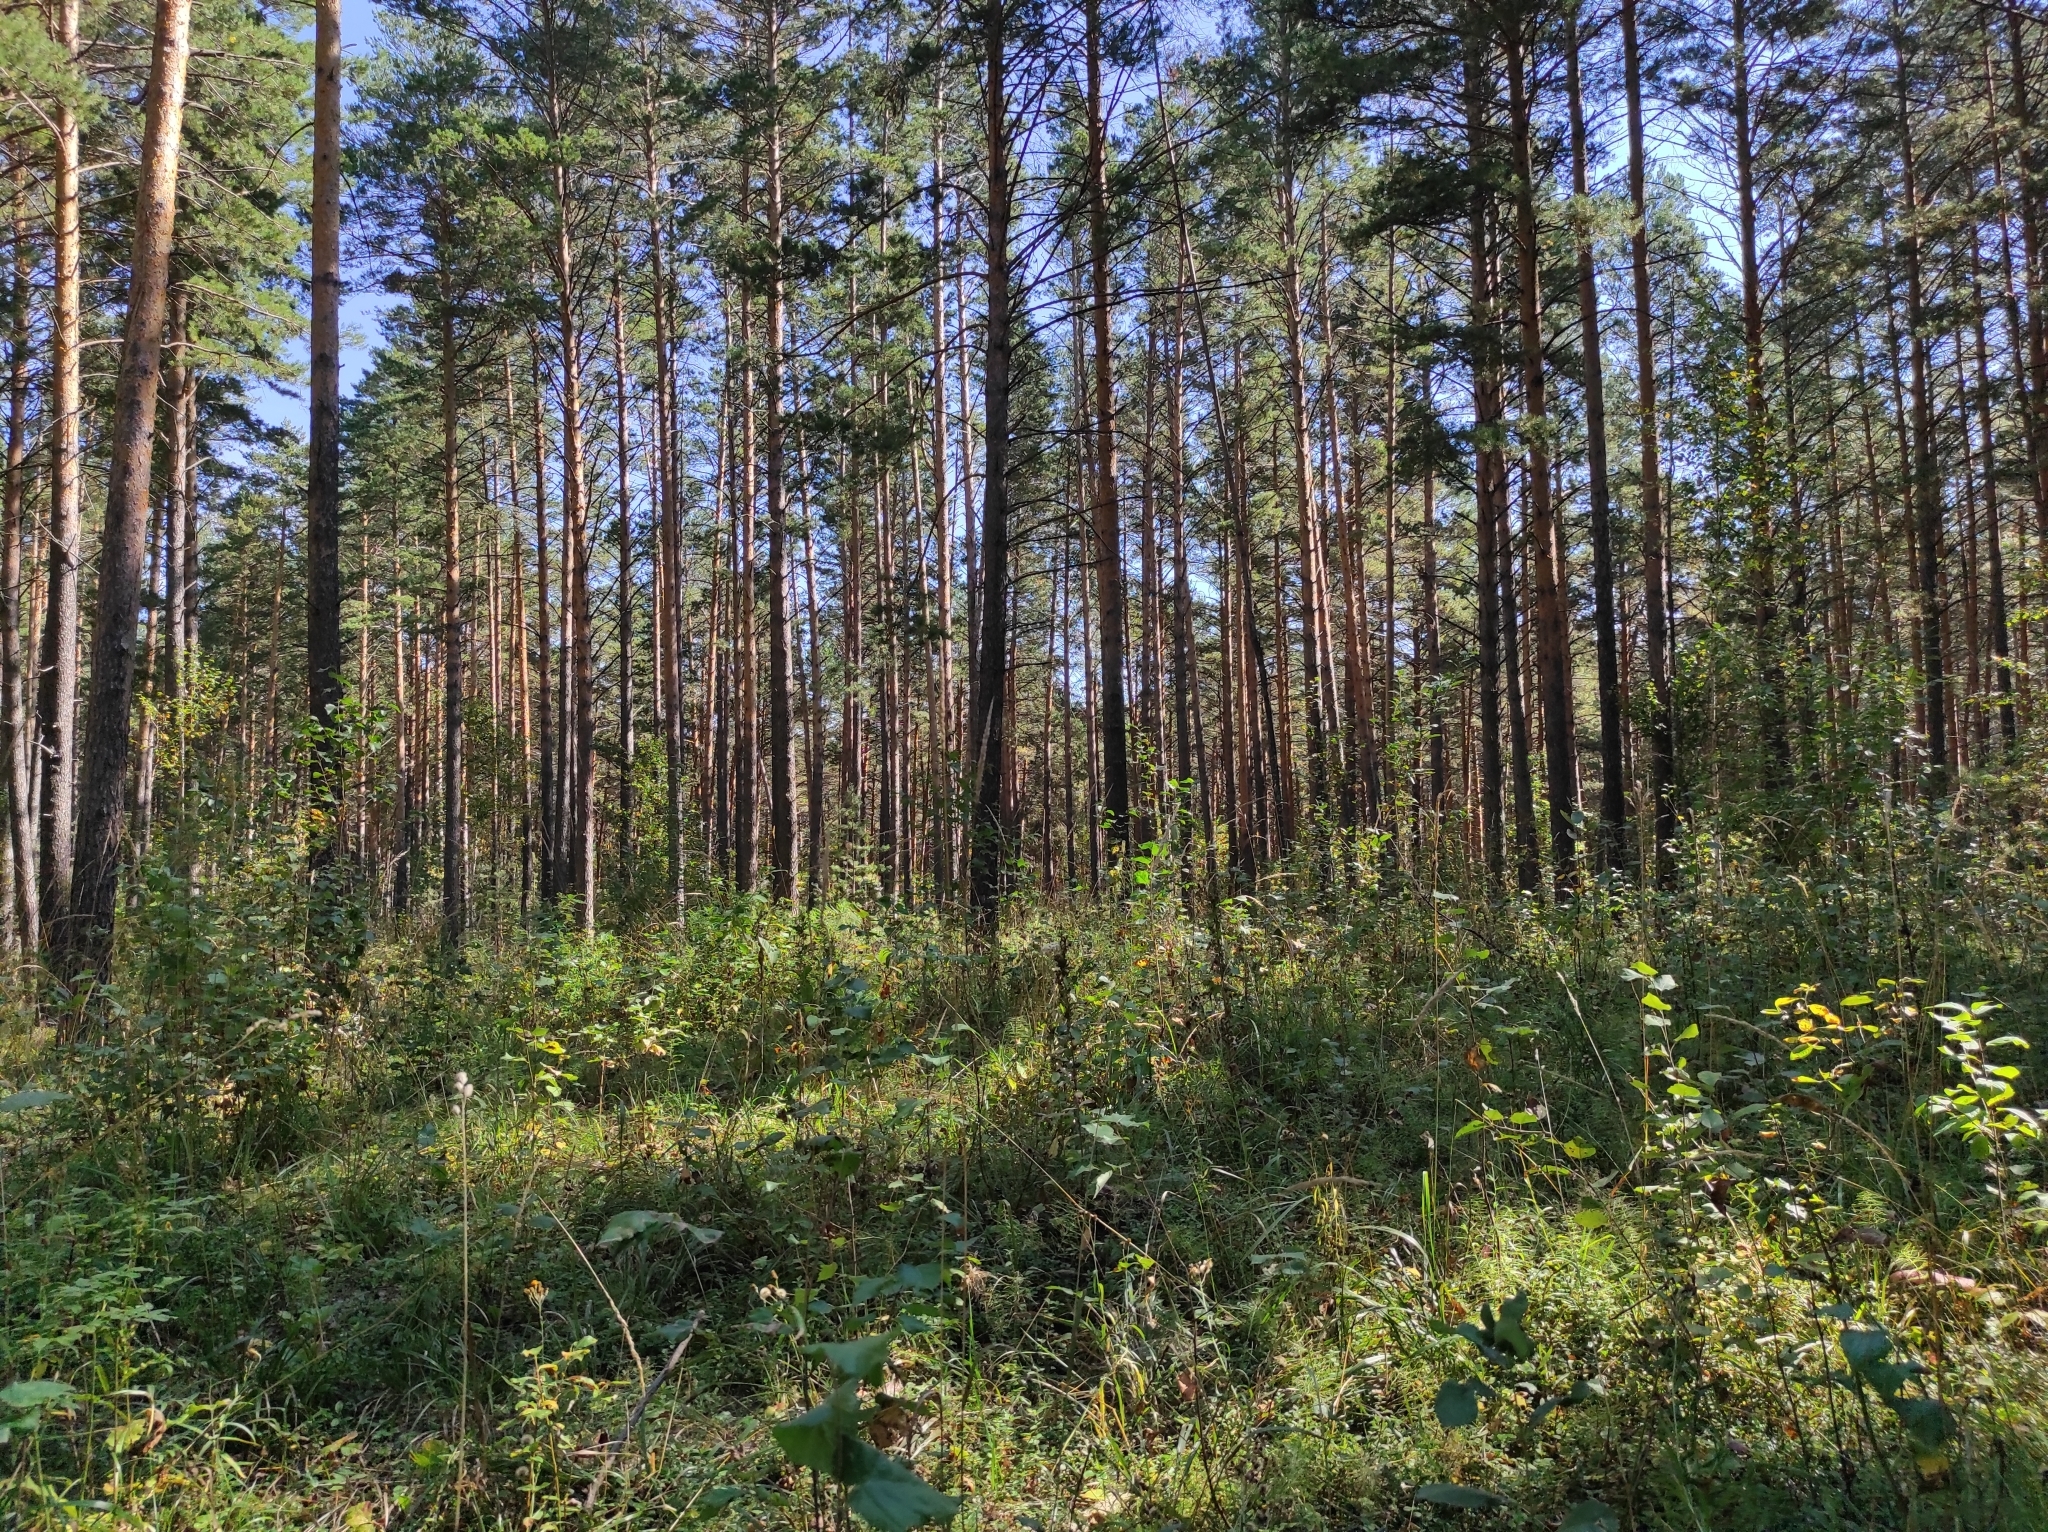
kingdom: Plantae
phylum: Tracheophyta
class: Pinopsida
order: Pinales
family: Pinaceae
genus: Pinus
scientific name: Pinus sylvestris
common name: Scots pine
